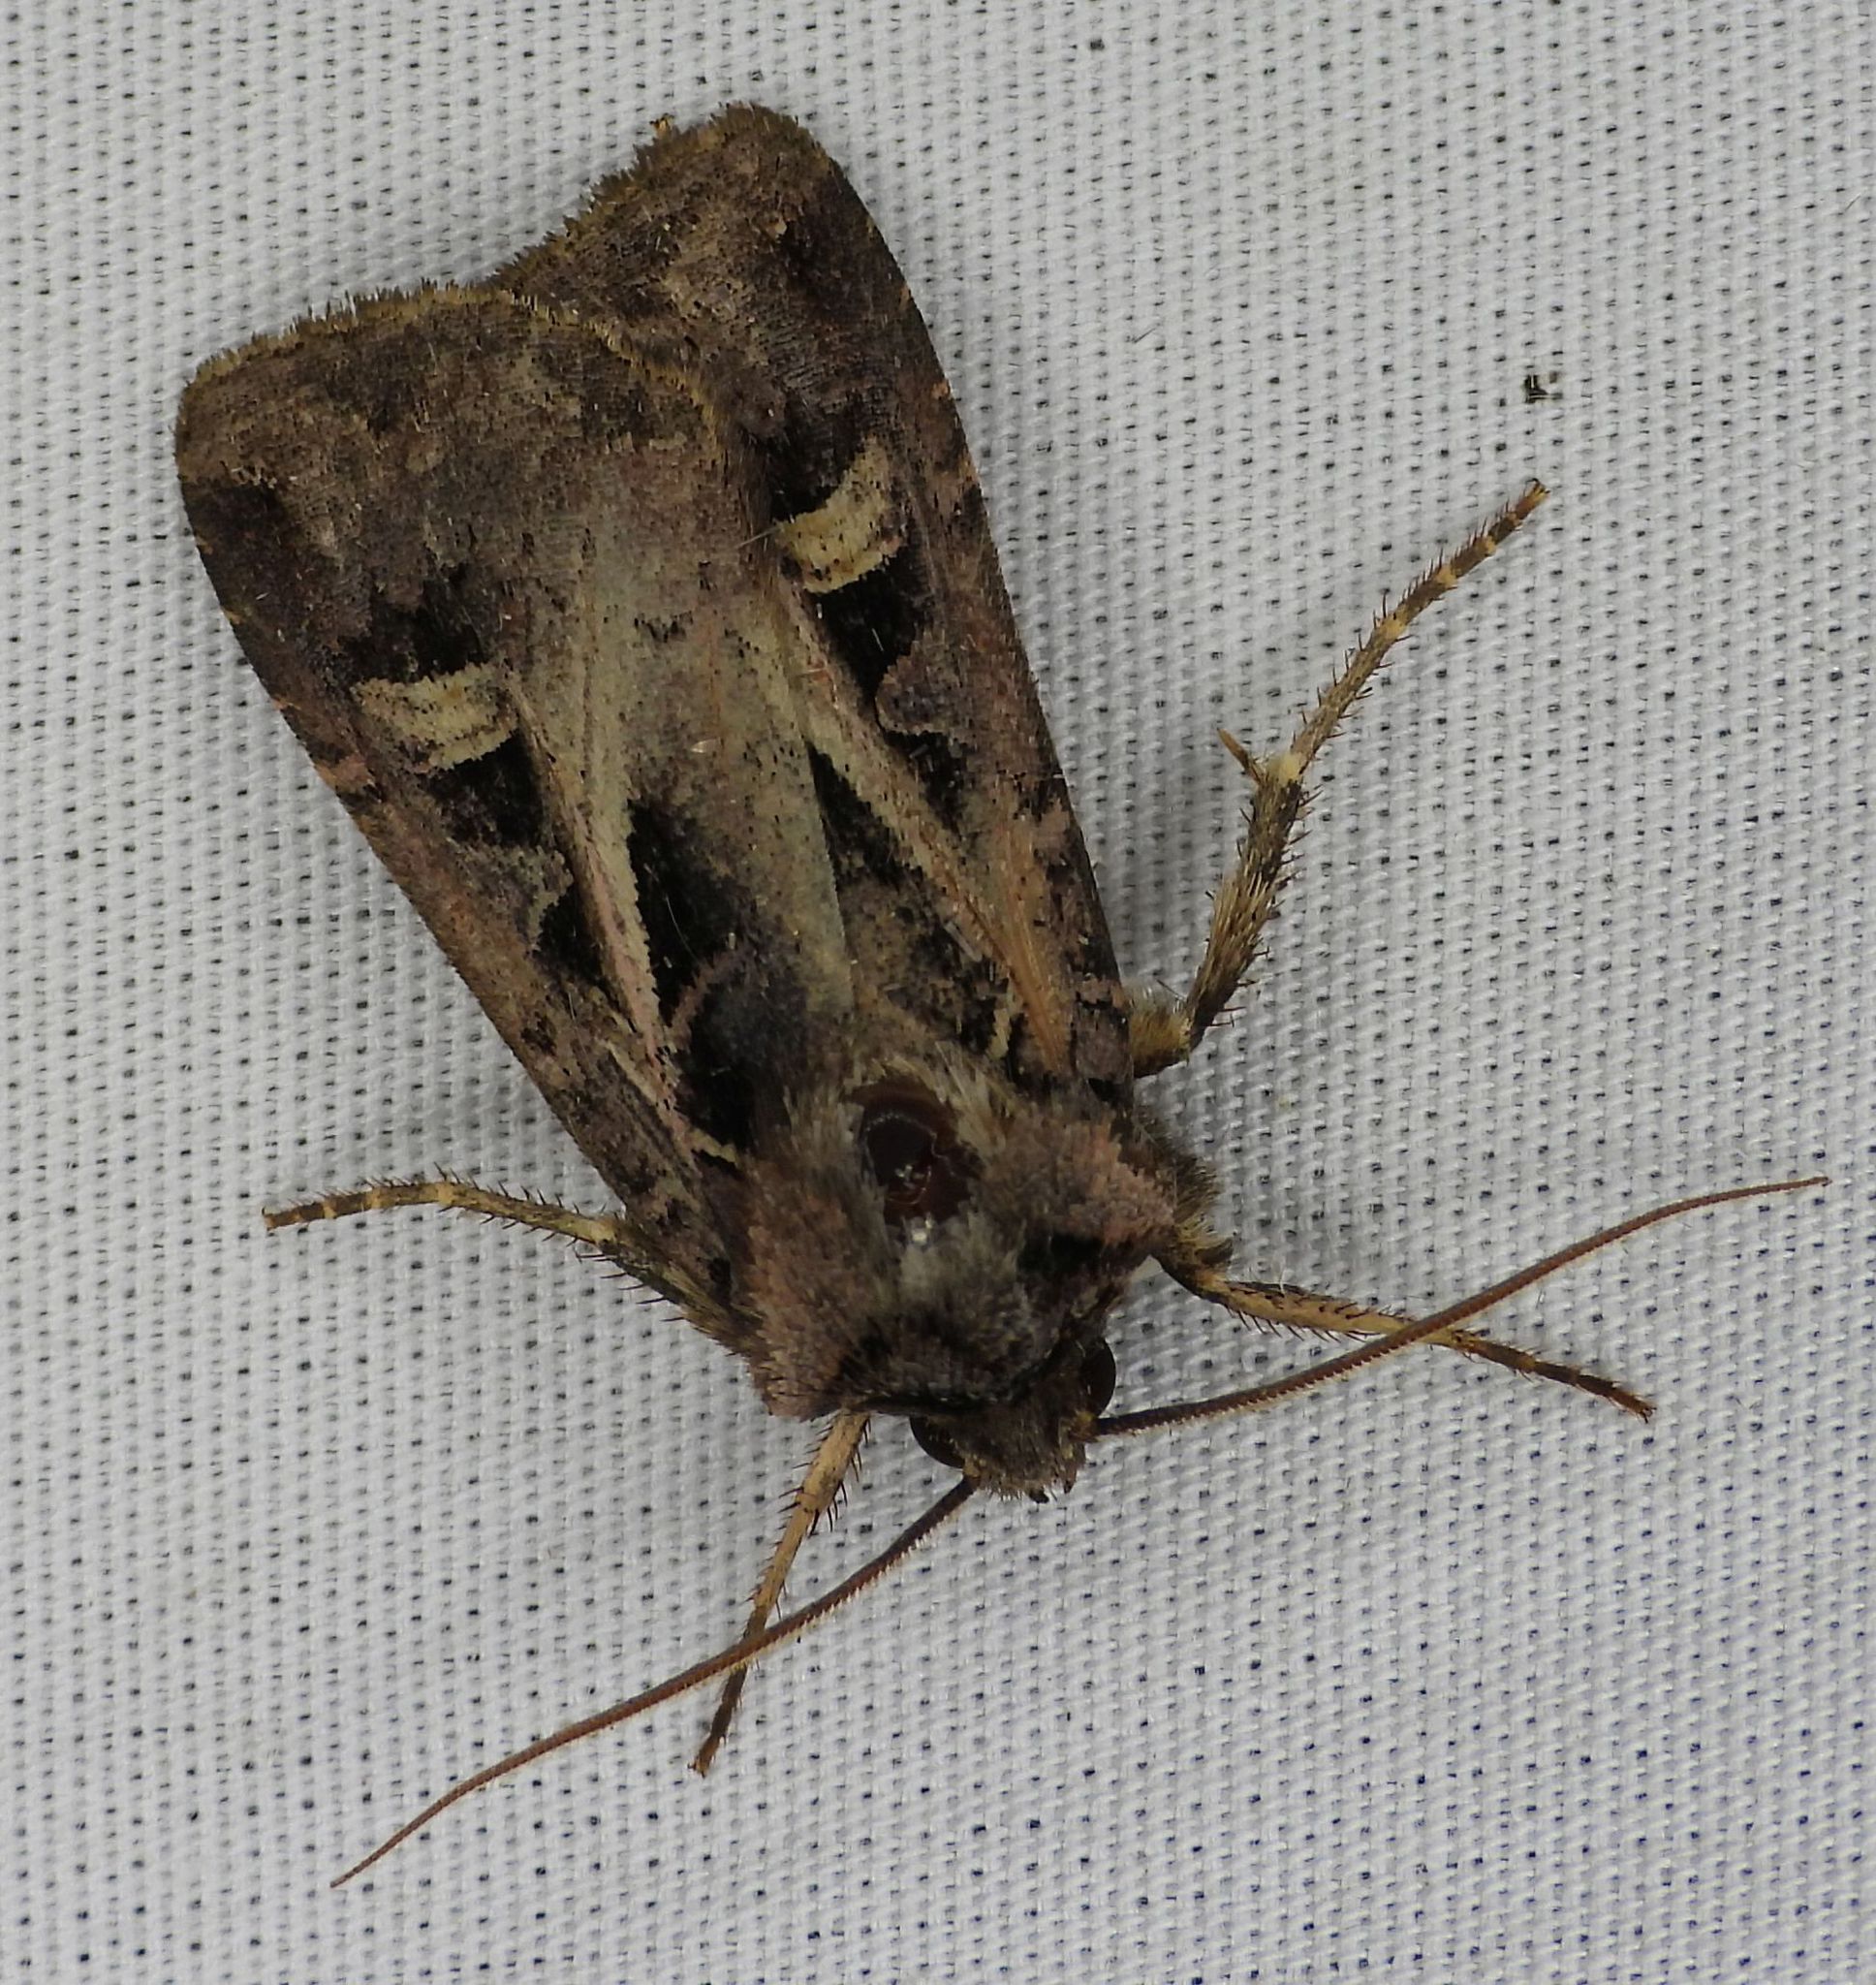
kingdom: Animalia
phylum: Arthropoda
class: Insecta
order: Lepidoptera
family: Noctuidae
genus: Feltia
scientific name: Feltia herilis
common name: Master's dart
